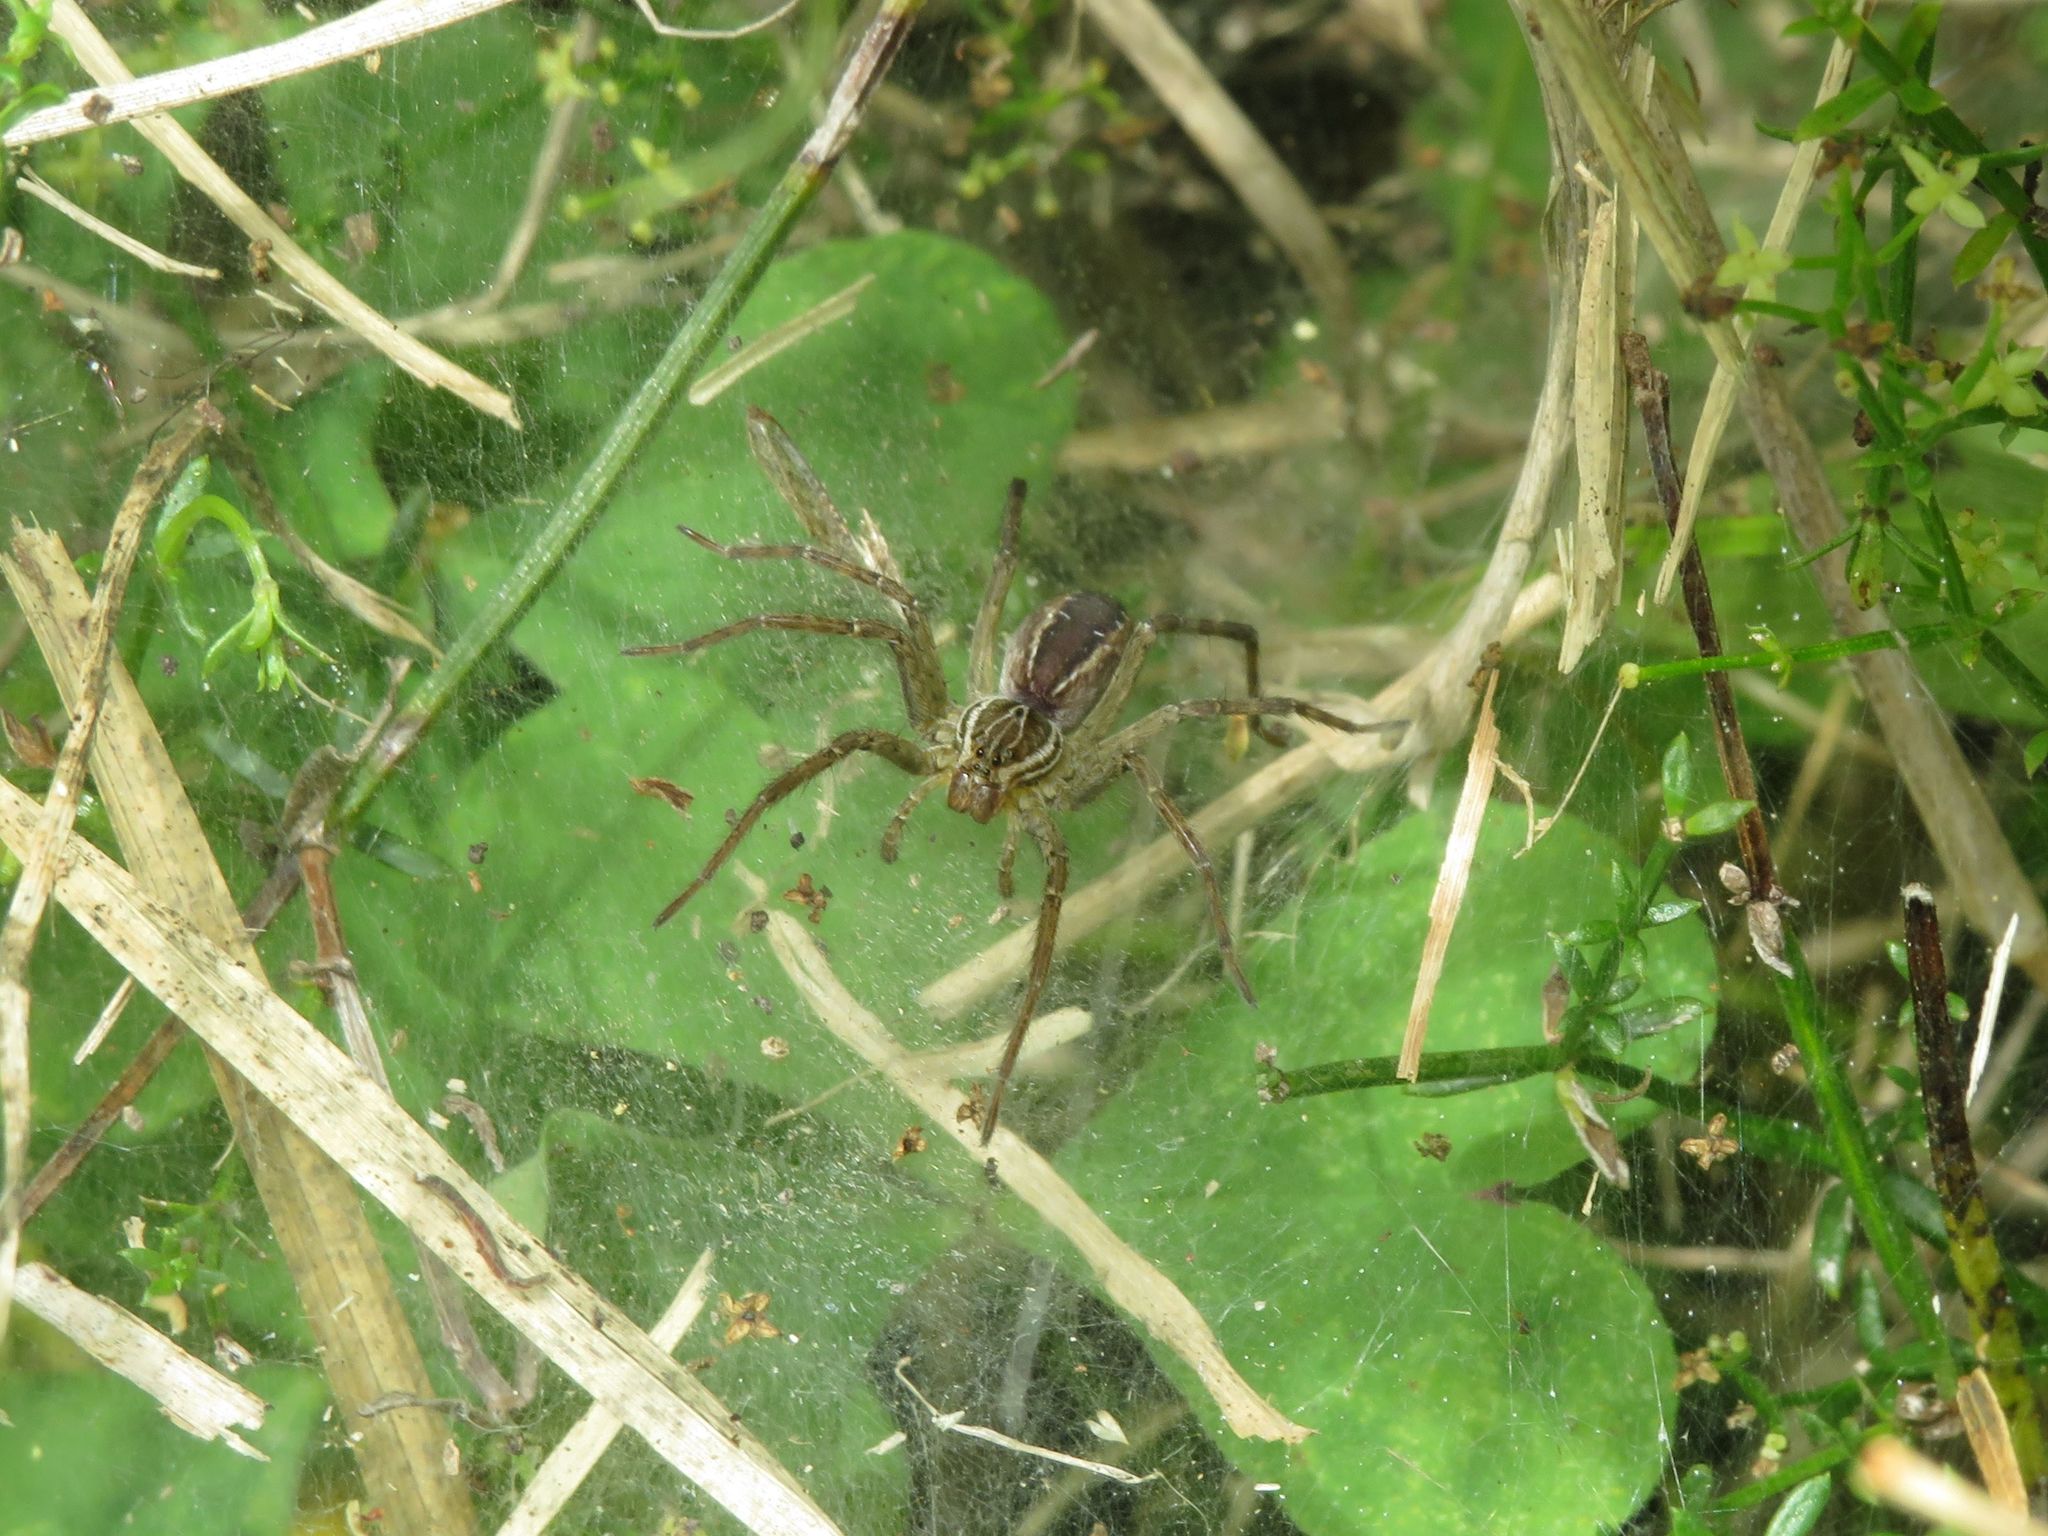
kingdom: Animalia
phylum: Arthropoda
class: Arachnida
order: Araneae
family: Lycosidae
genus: Aglaoctenus
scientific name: Aglaoctenus lagotis
